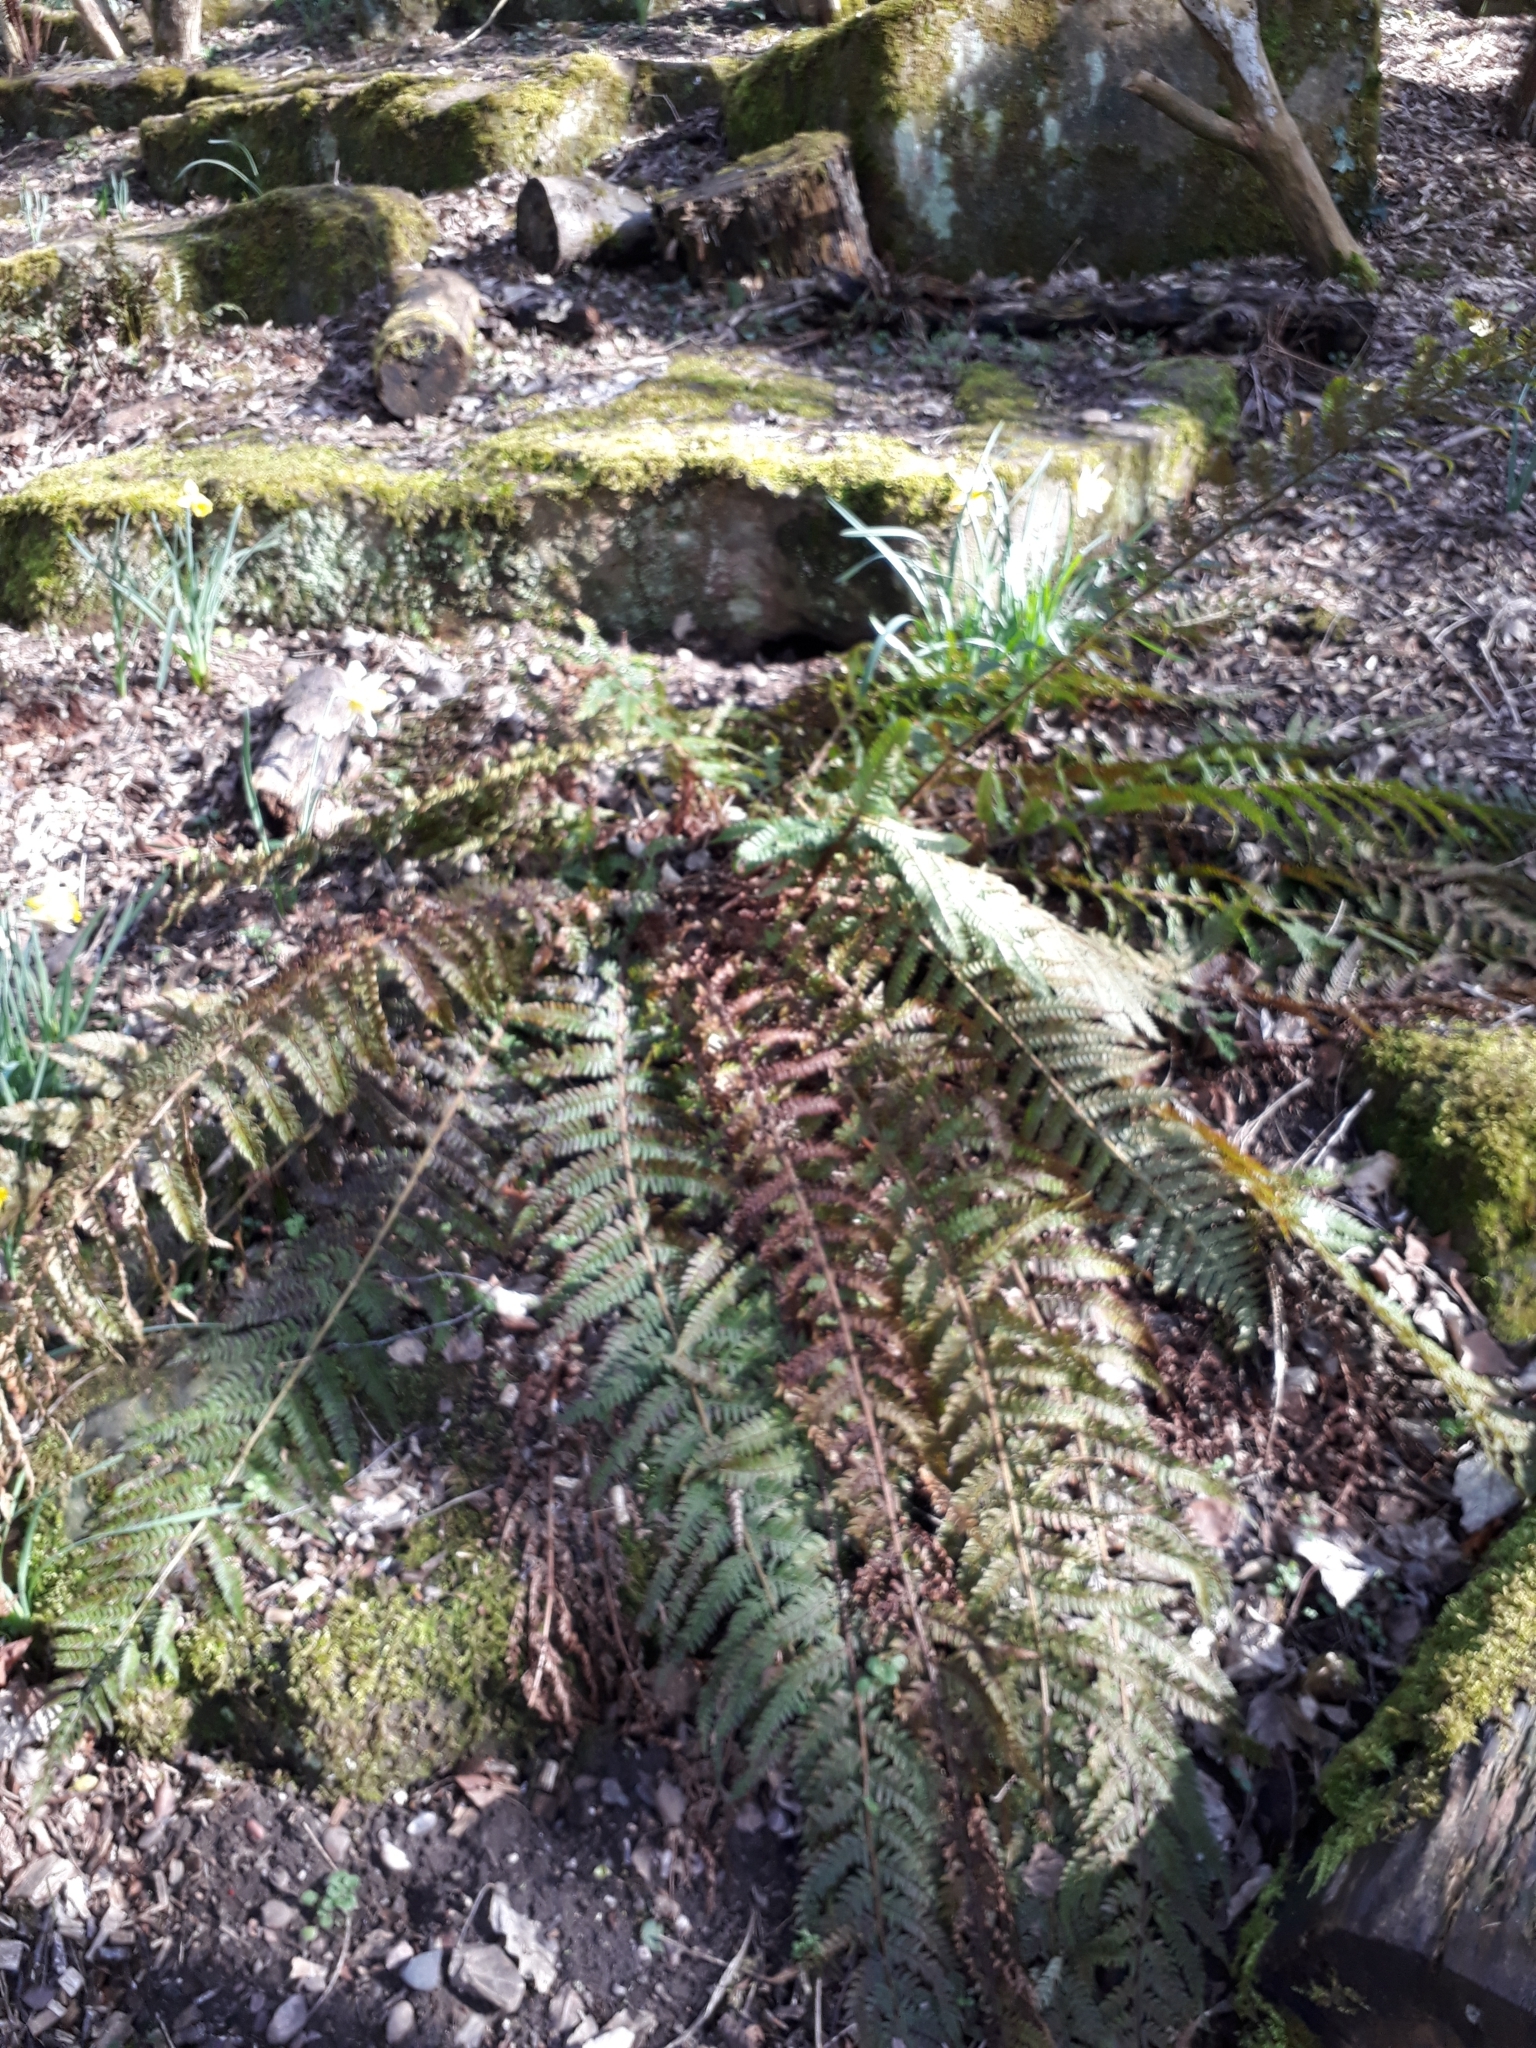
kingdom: Plantae
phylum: Tracheophyta
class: Polypodiopsida
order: Polypodiales
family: Dryopteridaceae
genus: Polystichum
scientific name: Polystichum setiferum
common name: Soft shield-fern
